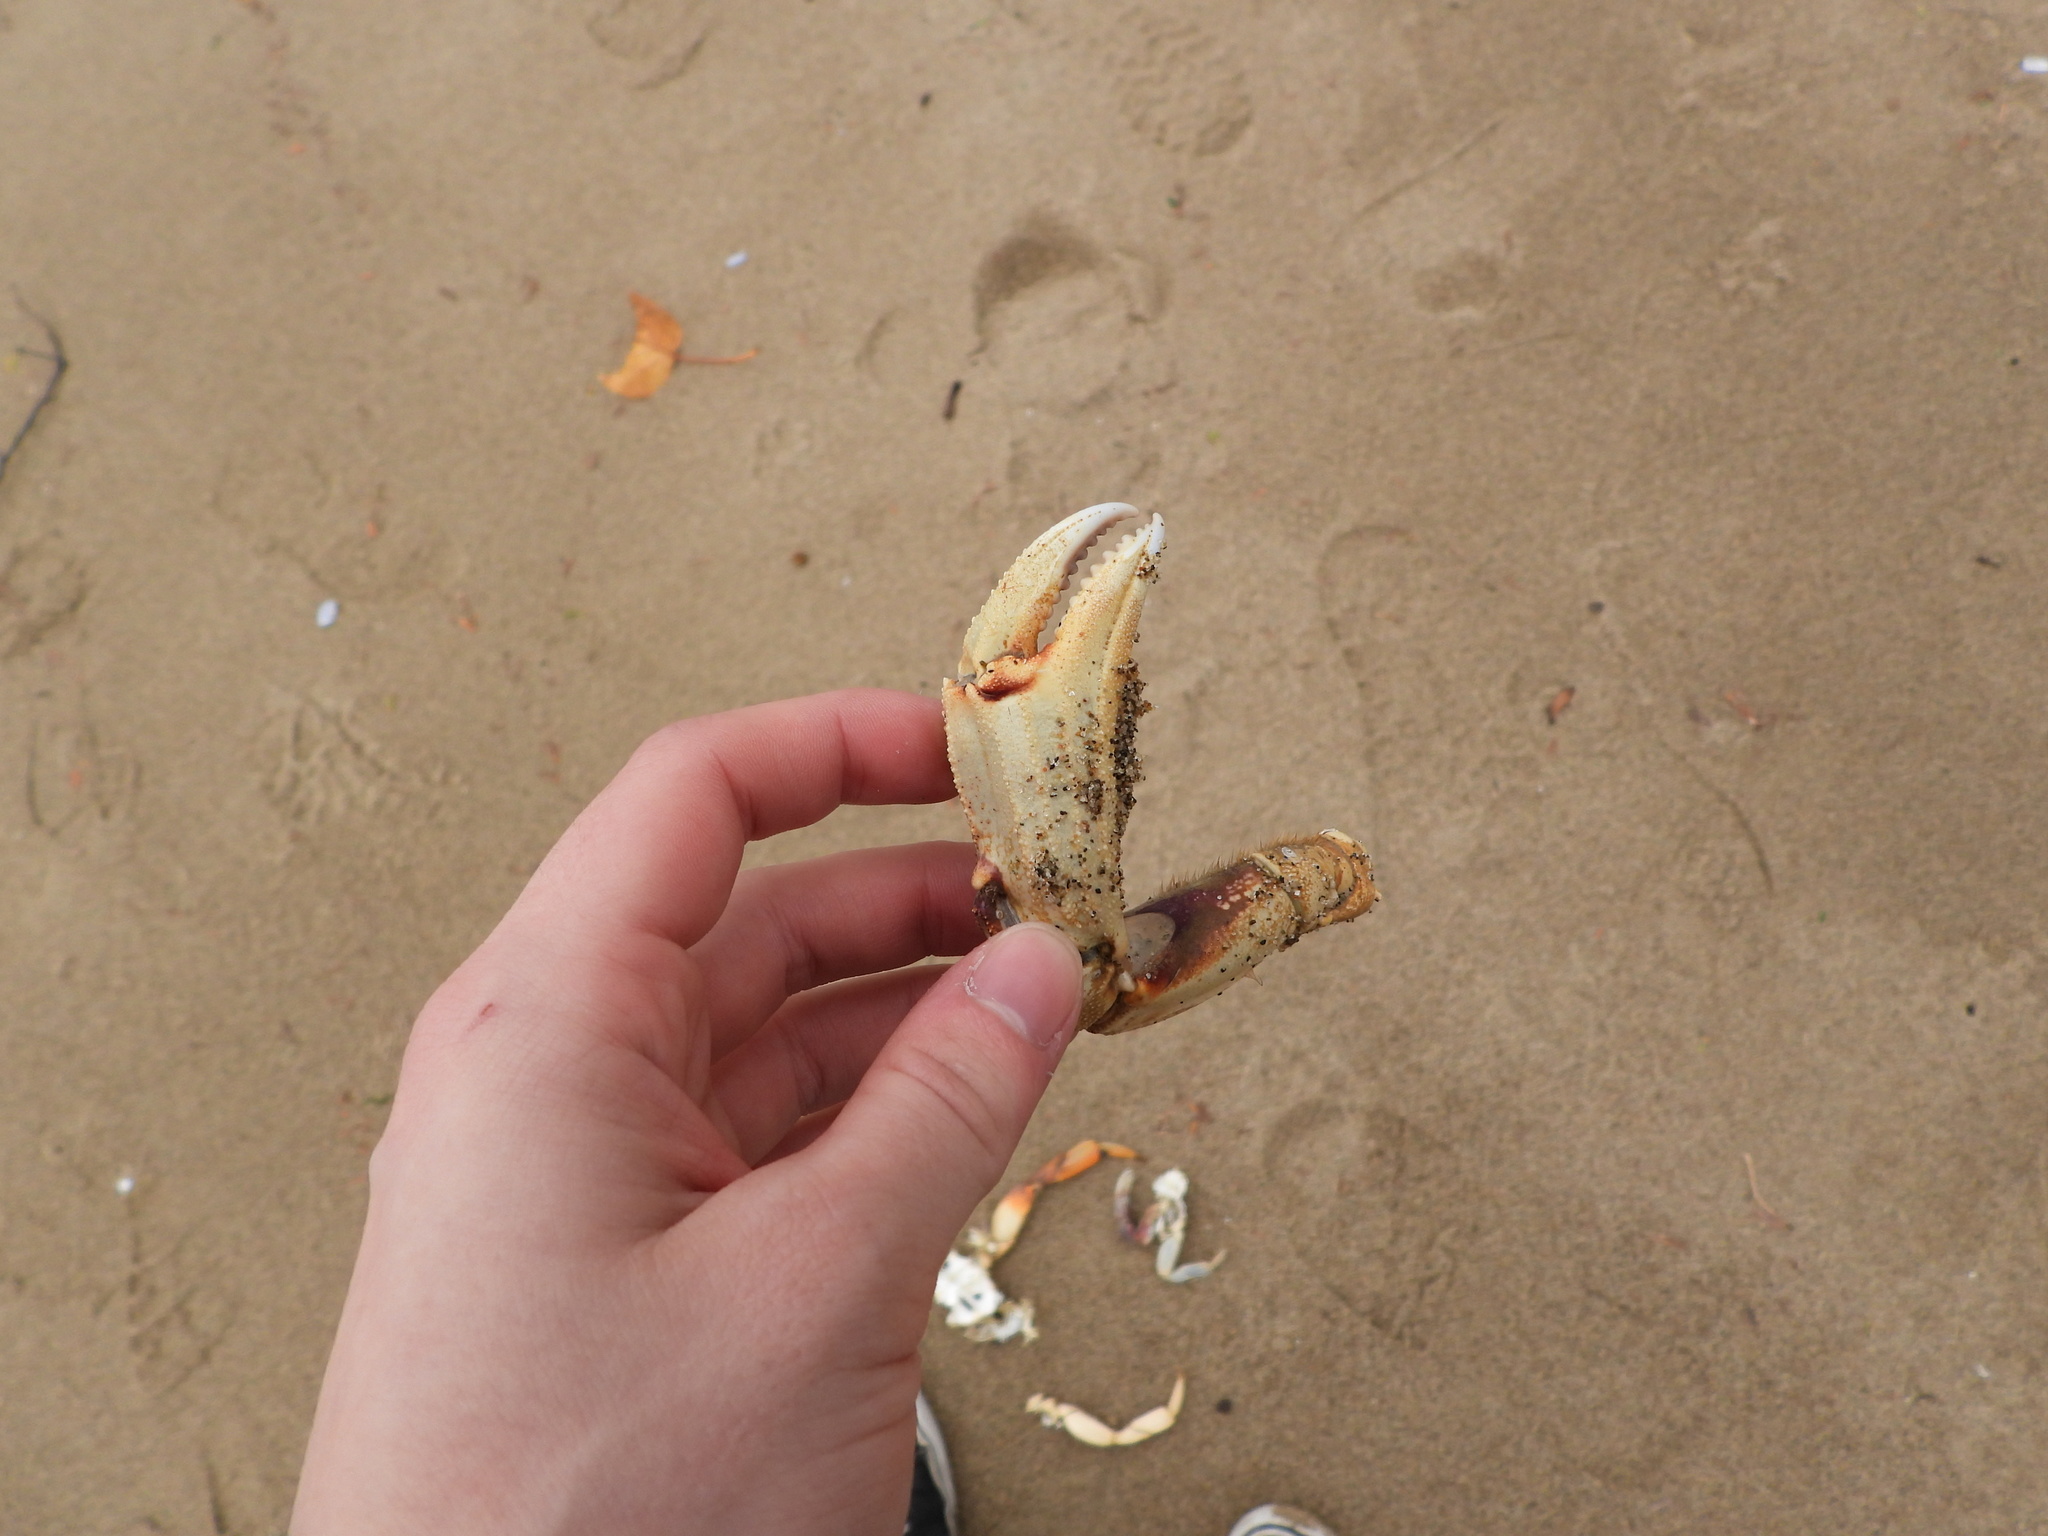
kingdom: Animalia
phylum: Arthropoda
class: Malacostraca
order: Decapoda
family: Cancridae
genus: Metacarcinus
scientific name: Metacarcinus magister
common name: Californian crab
